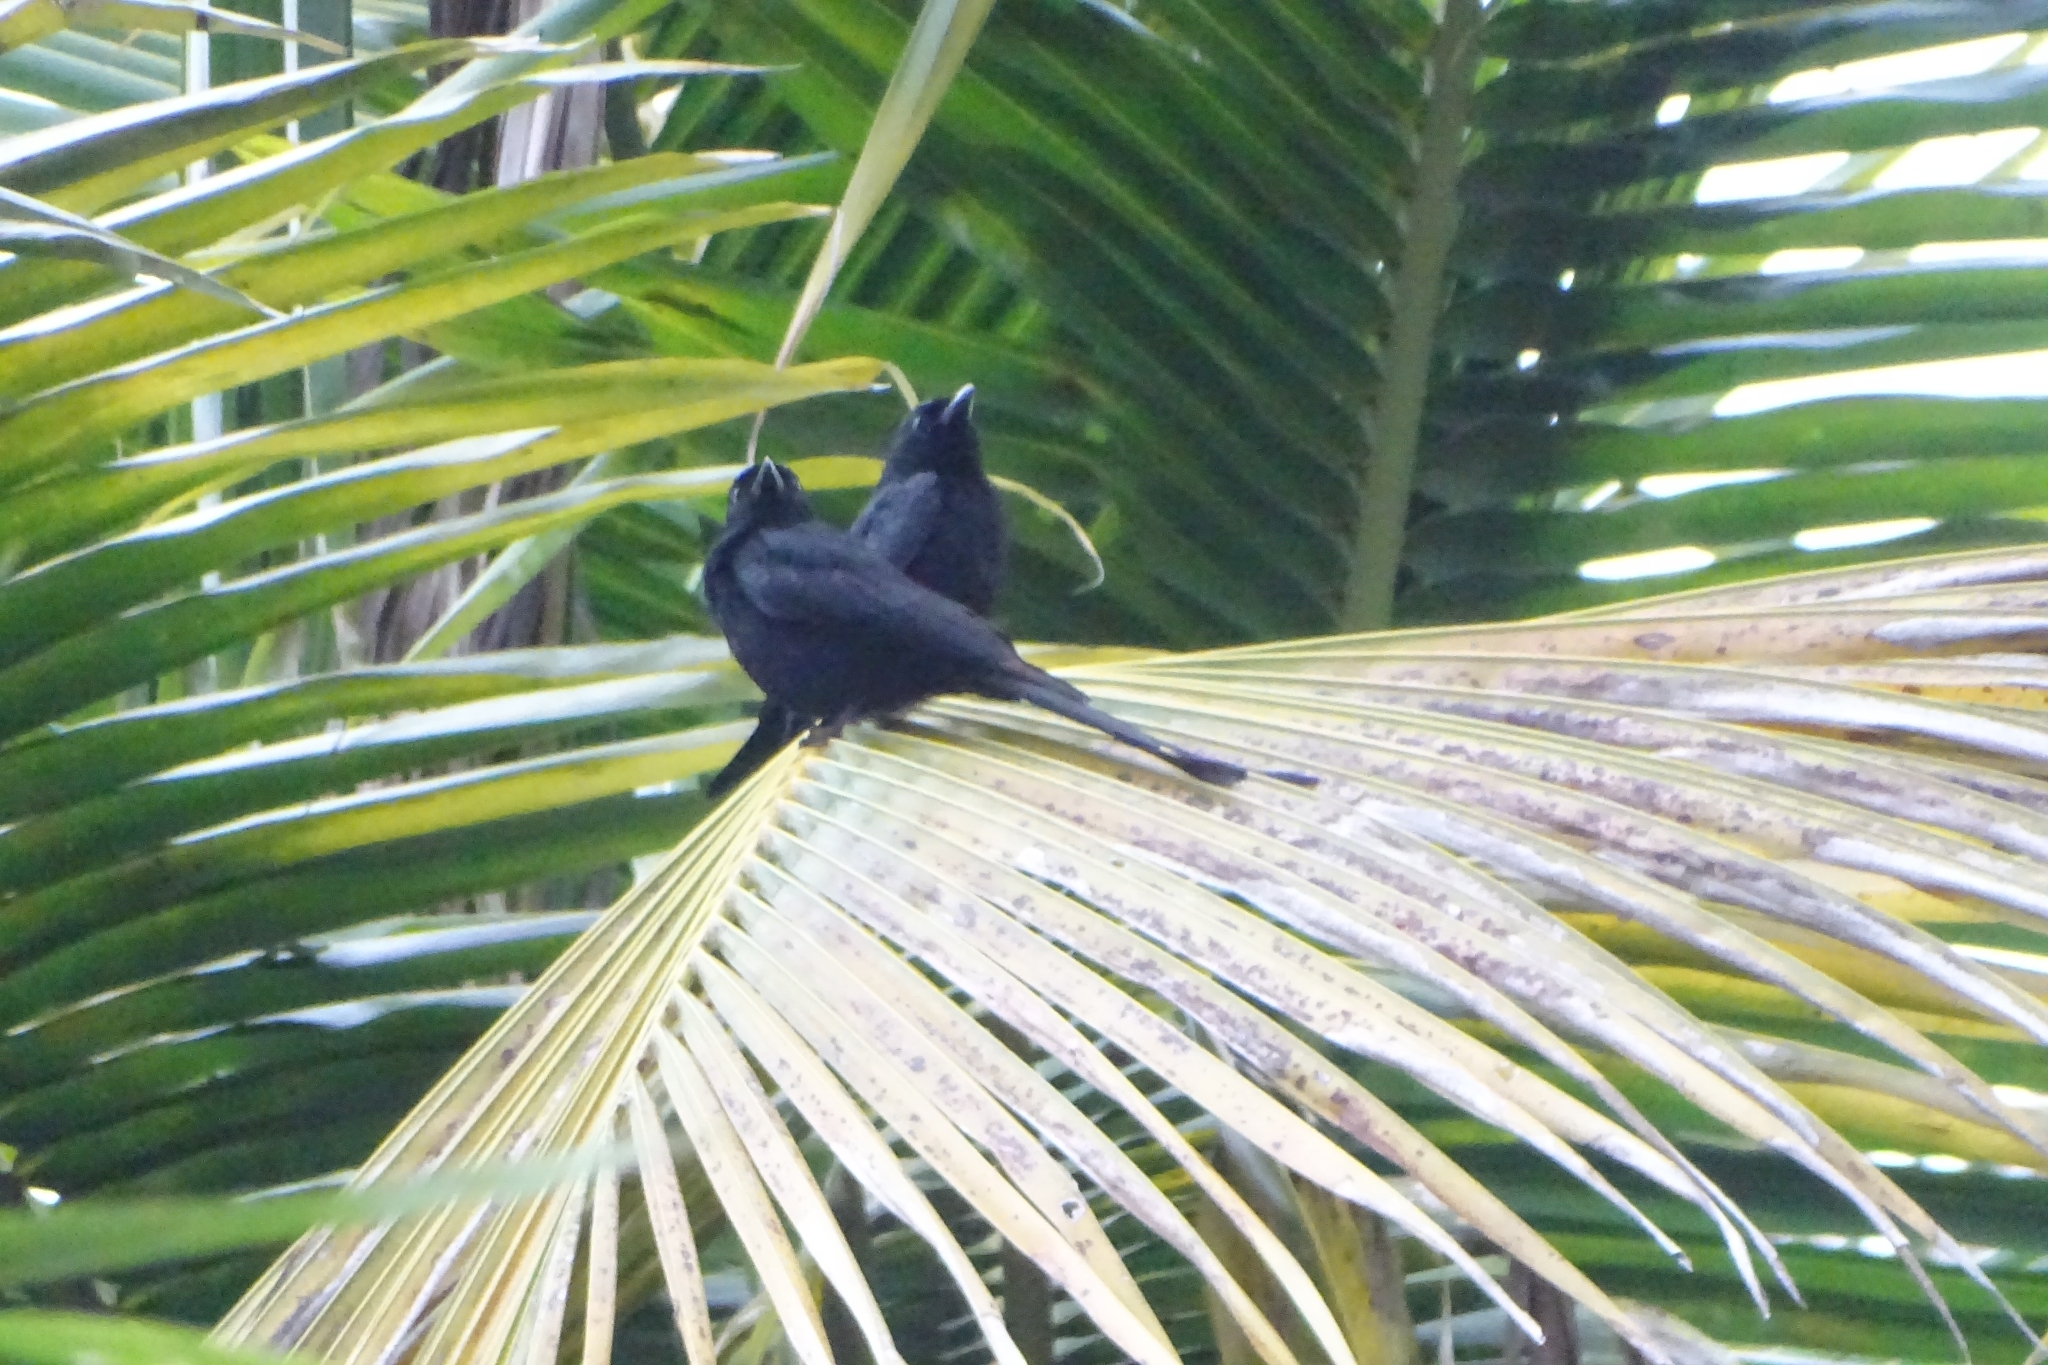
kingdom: Animalia
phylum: Chordata
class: Aves
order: Passeriformes
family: Dicruridae
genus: Dicrurus
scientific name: Dicrurus macrocercus
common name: Black drongo
